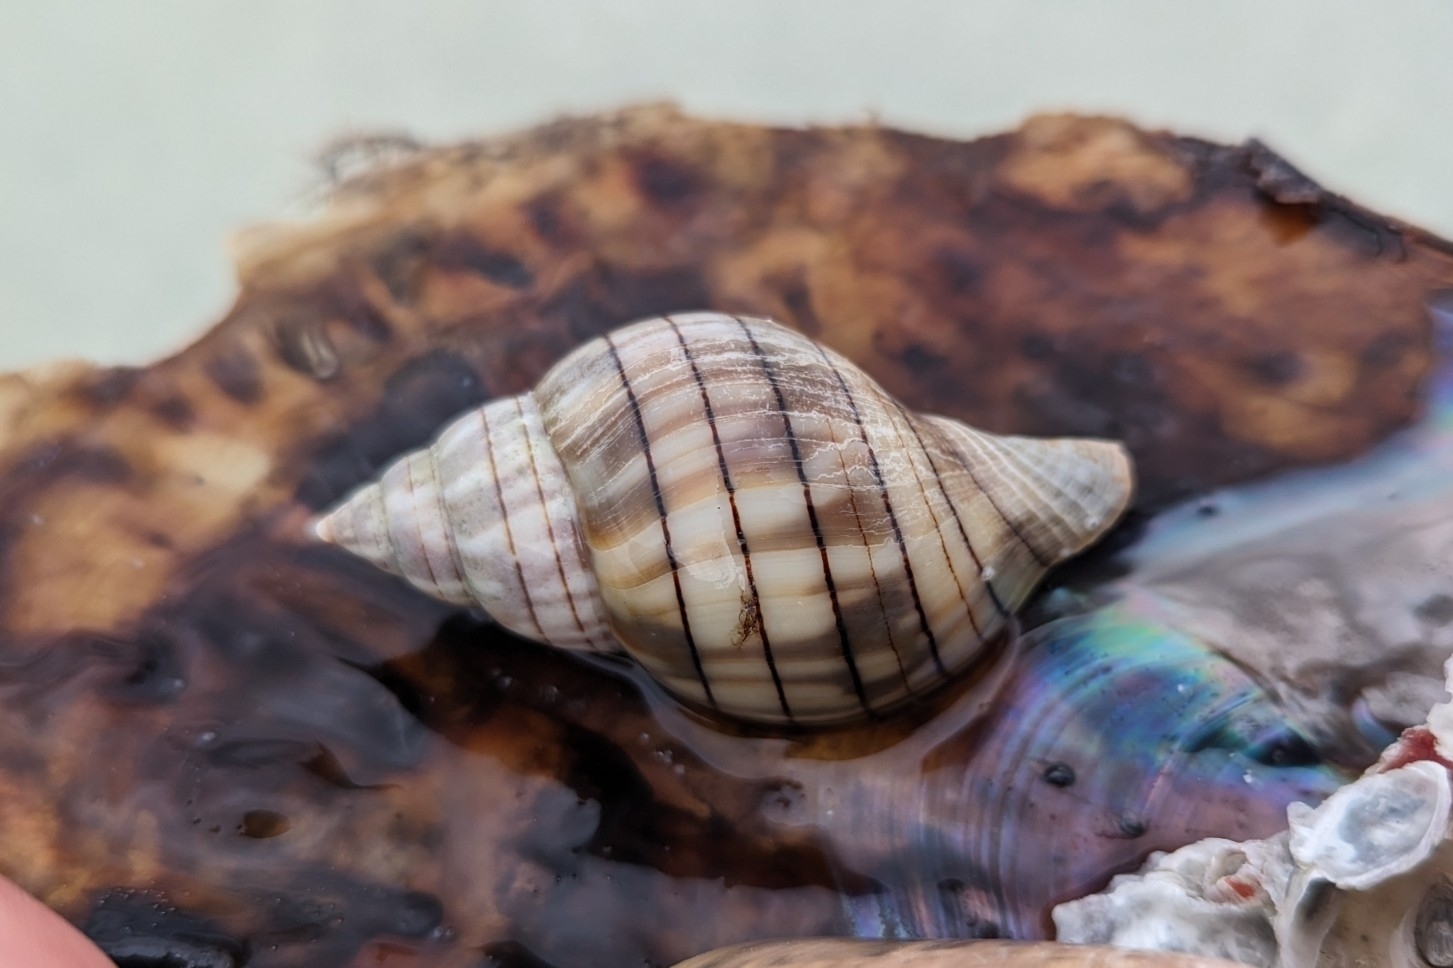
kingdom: Animalia
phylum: Mollusca
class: Gastropoda
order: Neogastropoda
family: Fasciolariidae
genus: Cinctura
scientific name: Cinctura hunteria
